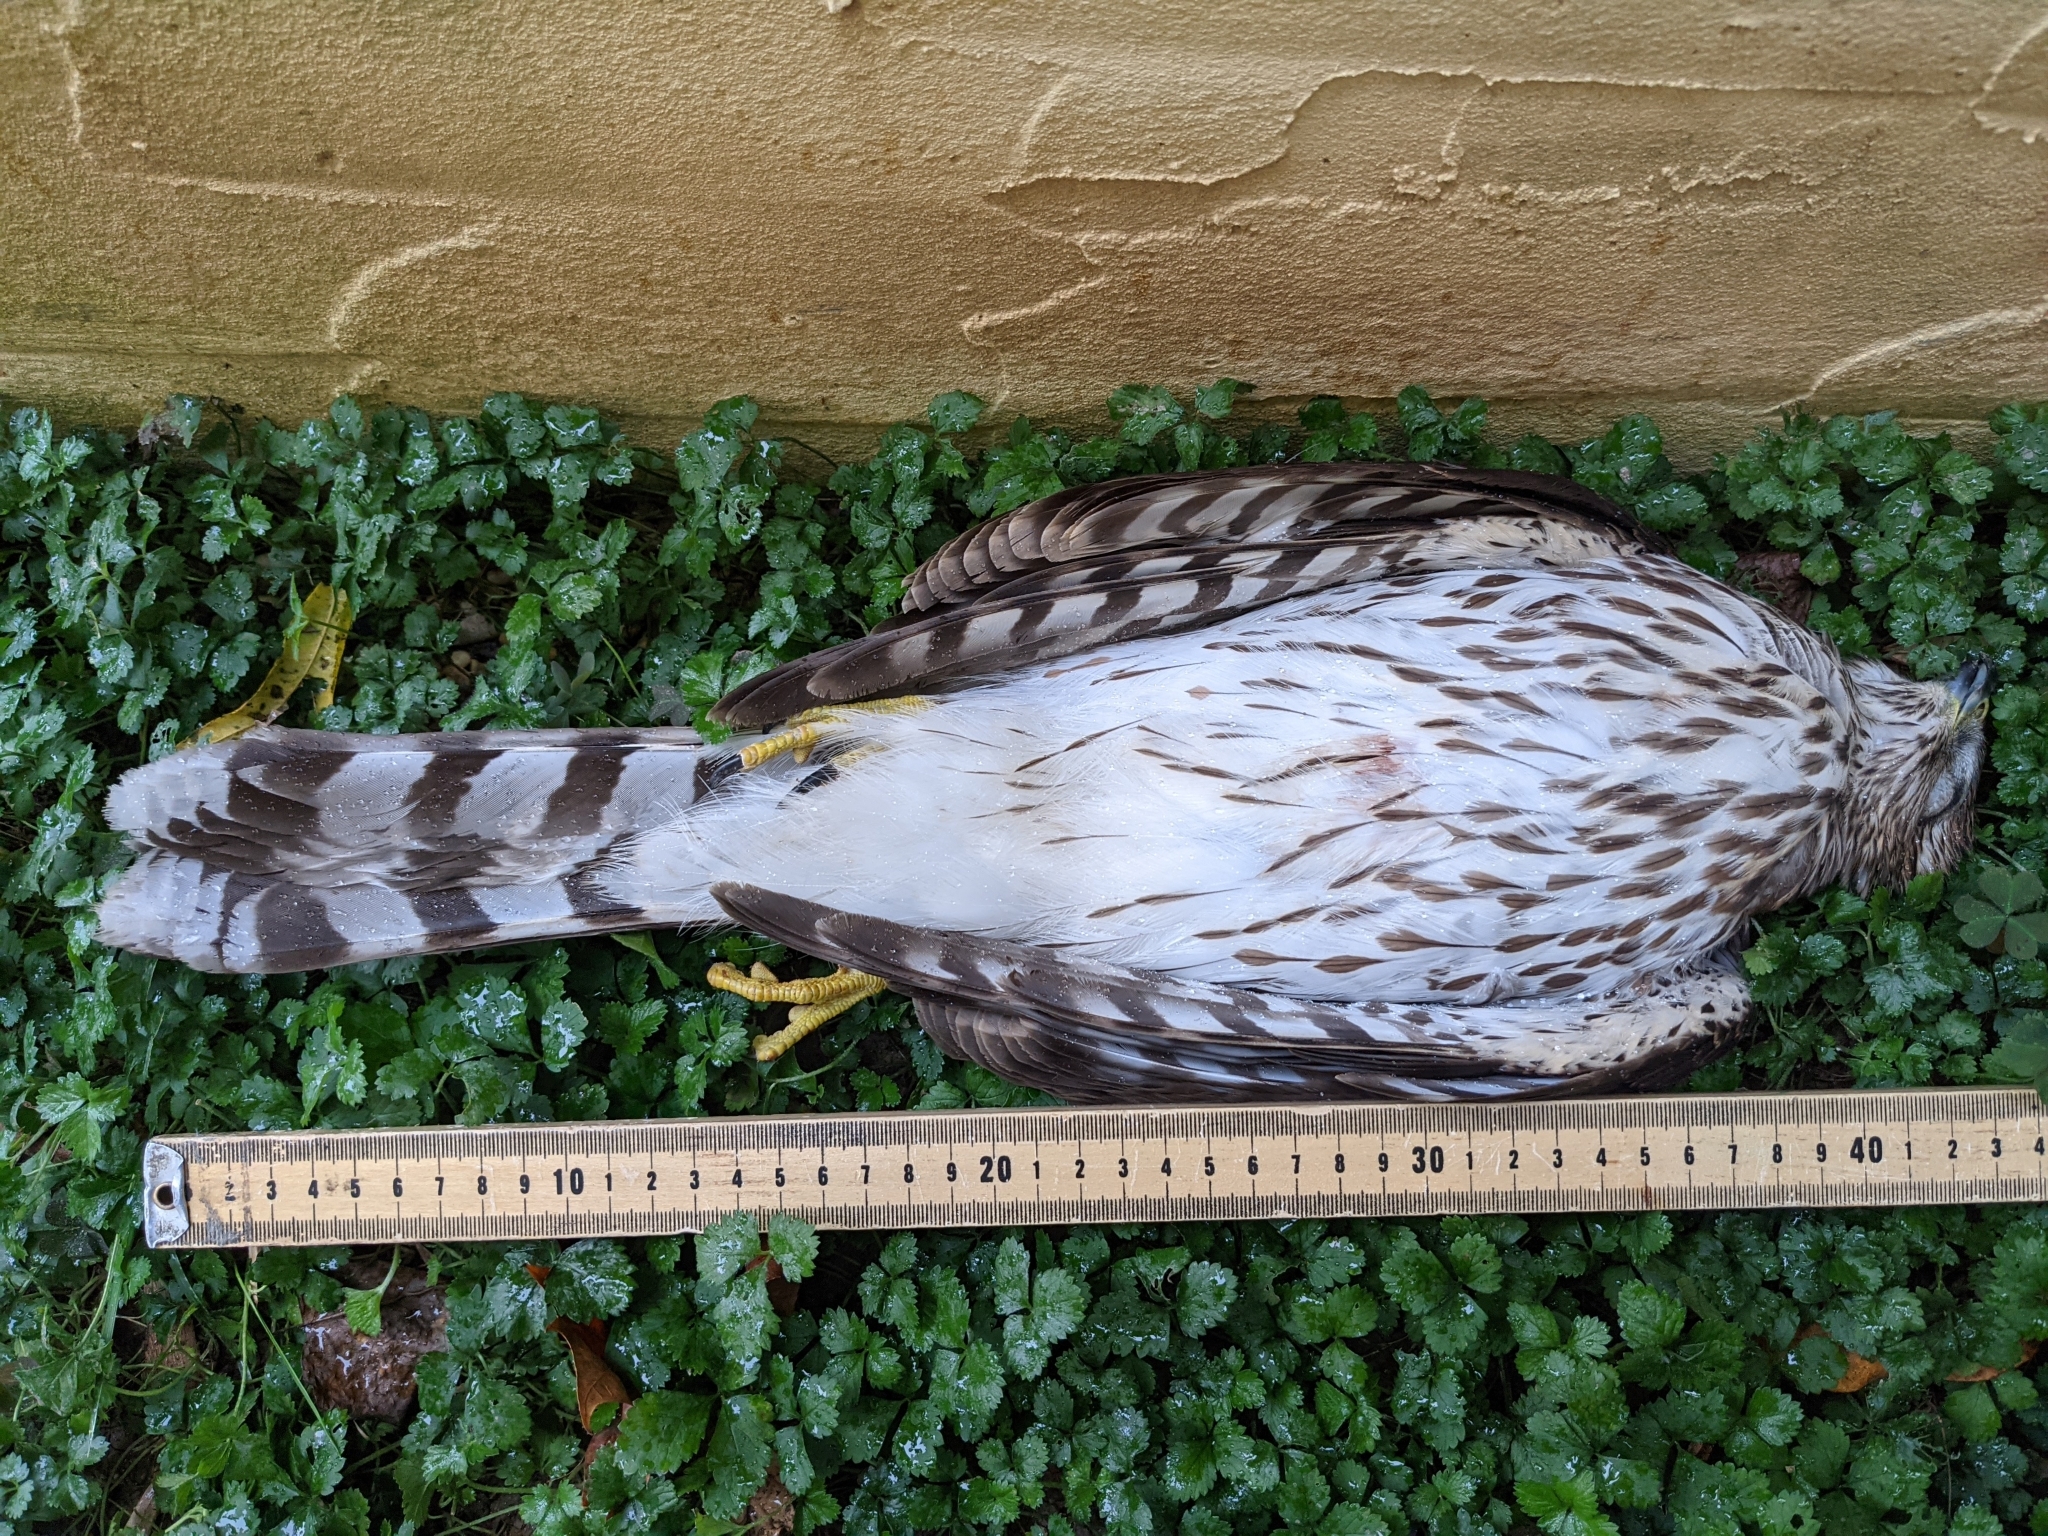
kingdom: Animalia
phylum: Chordata
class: Aves
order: Accipitriformes
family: Accipitridae
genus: Accipiter
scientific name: Accipiter cooperii
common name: Cooper's hawk
